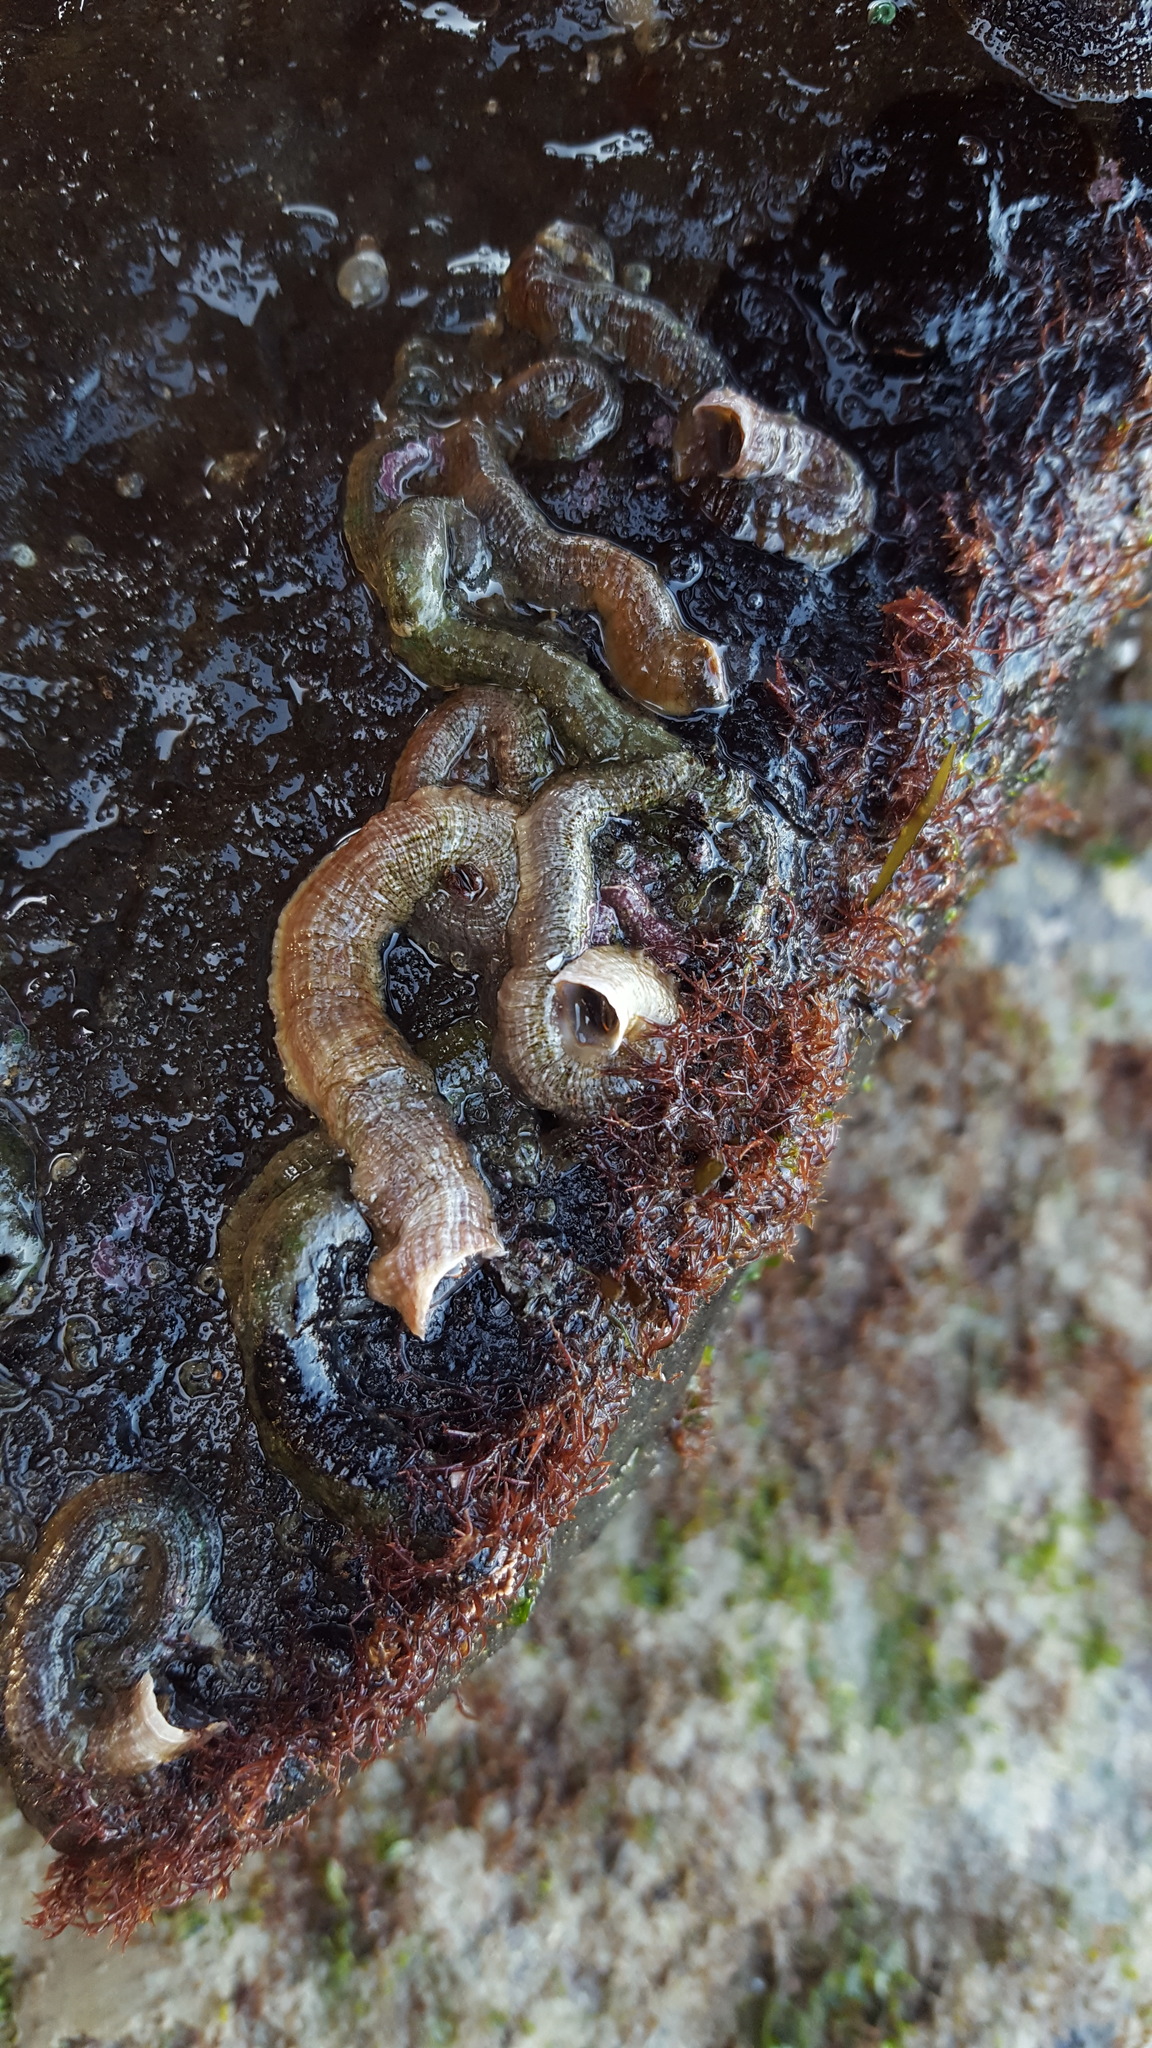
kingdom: Animalia
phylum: Mollusca
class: Gastropoda
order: Littorinimorpha
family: Vermetidae
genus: Thylacodes
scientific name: Thylacodes squamigerus
